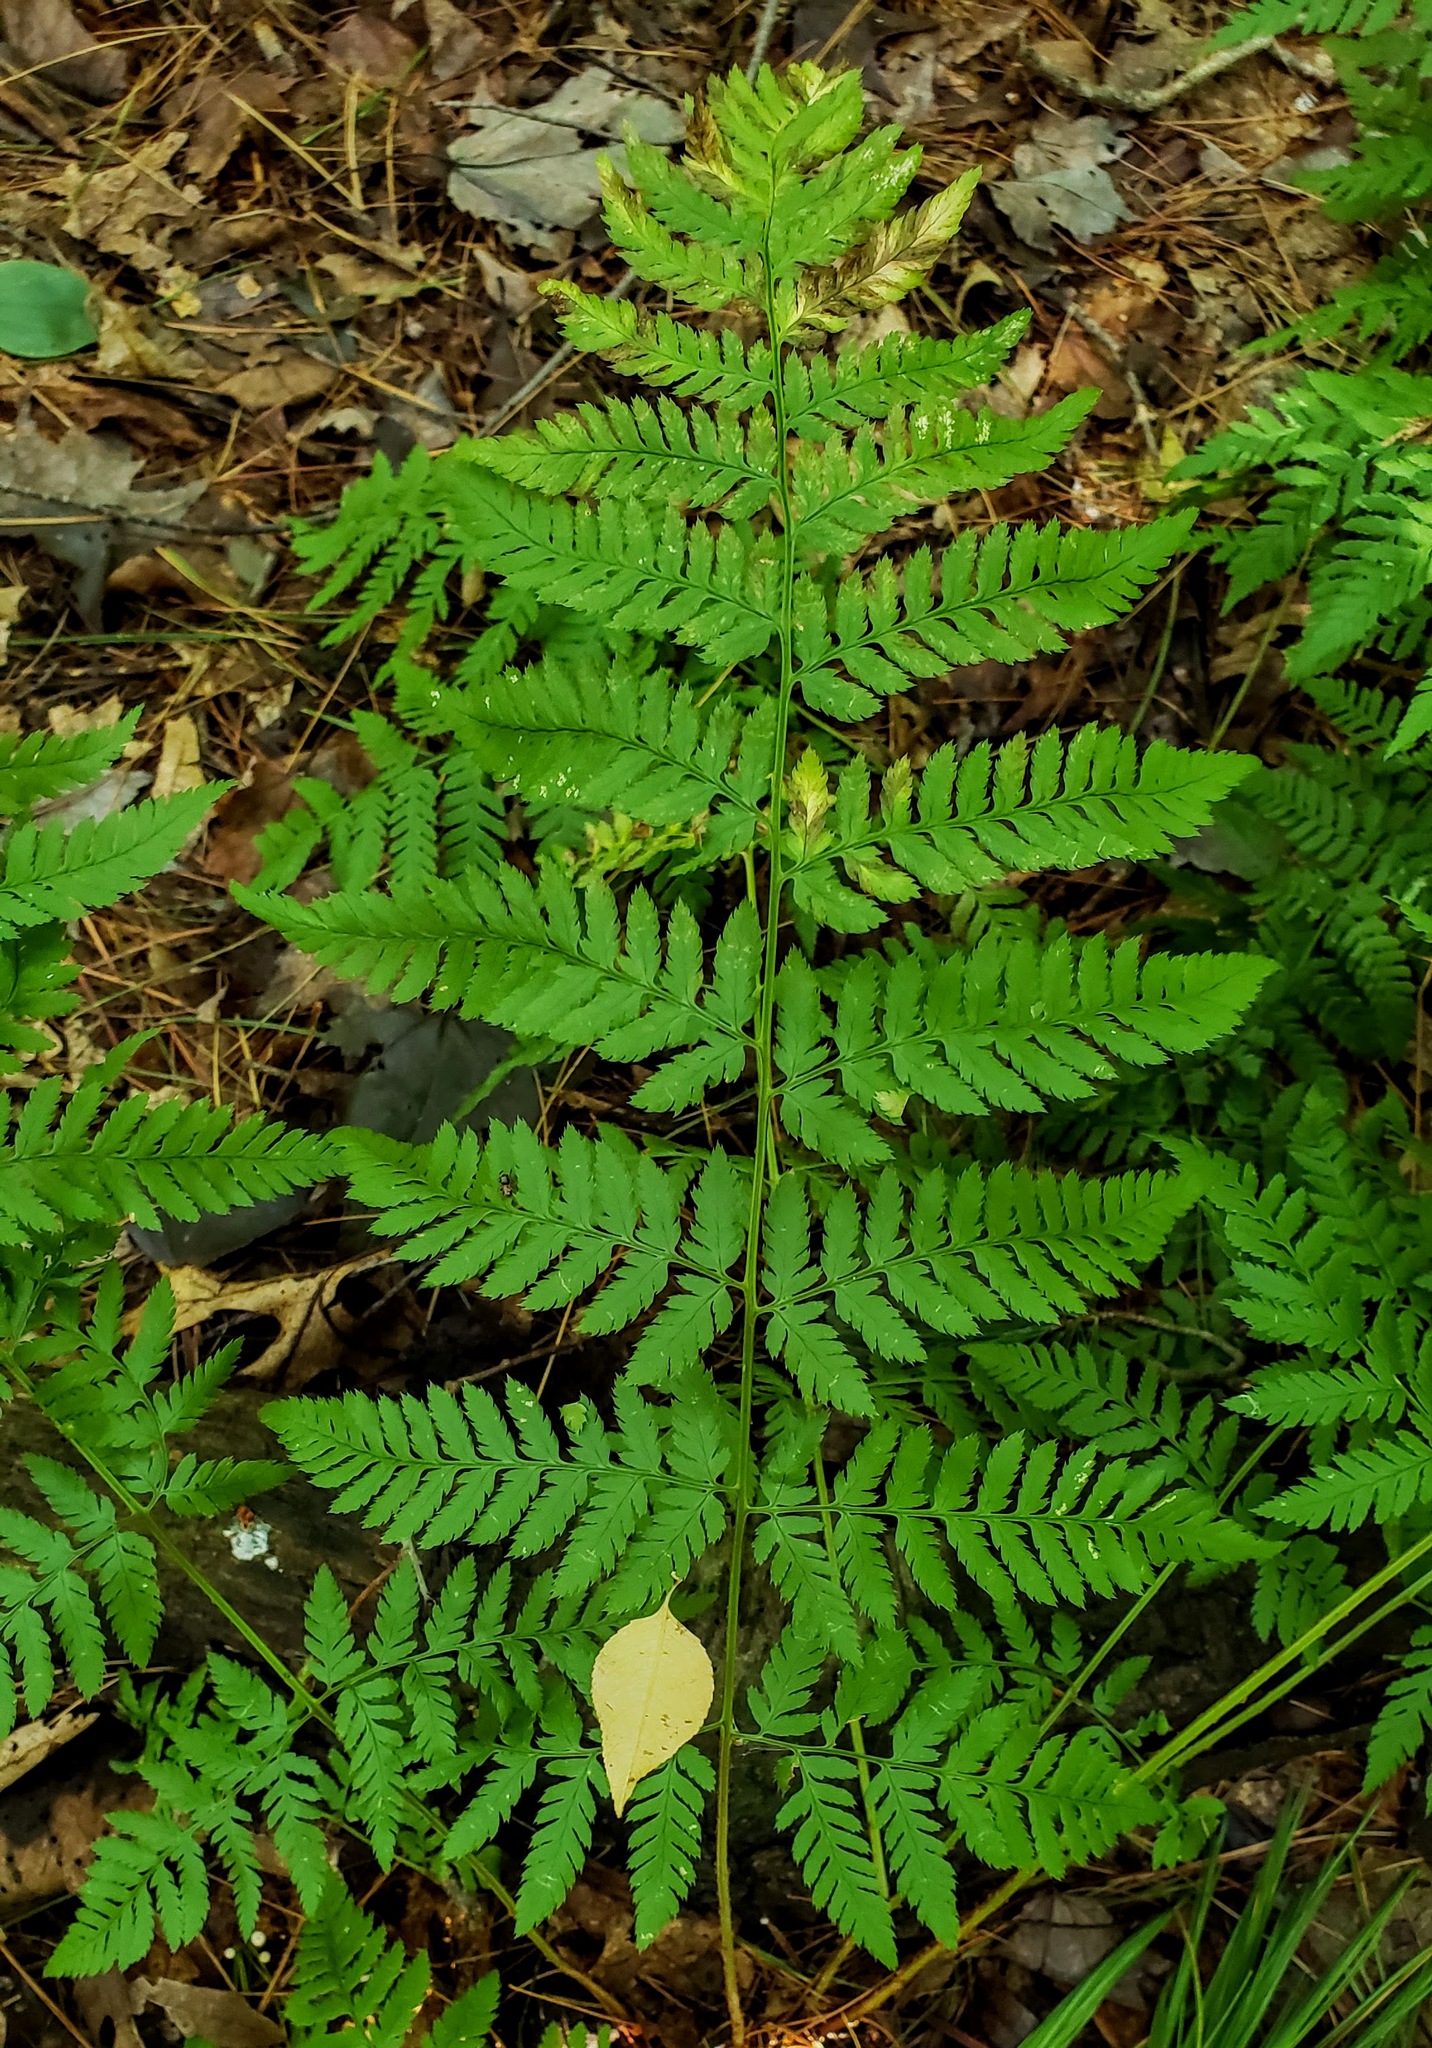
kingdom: Plantae
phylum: Tracheophyta
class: Polypodiopsida
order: Polypodiales
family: Dryopteridaceae
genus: Dryopteris
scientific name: Dryopteris carthusiana
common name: Narrow buckler-fern
